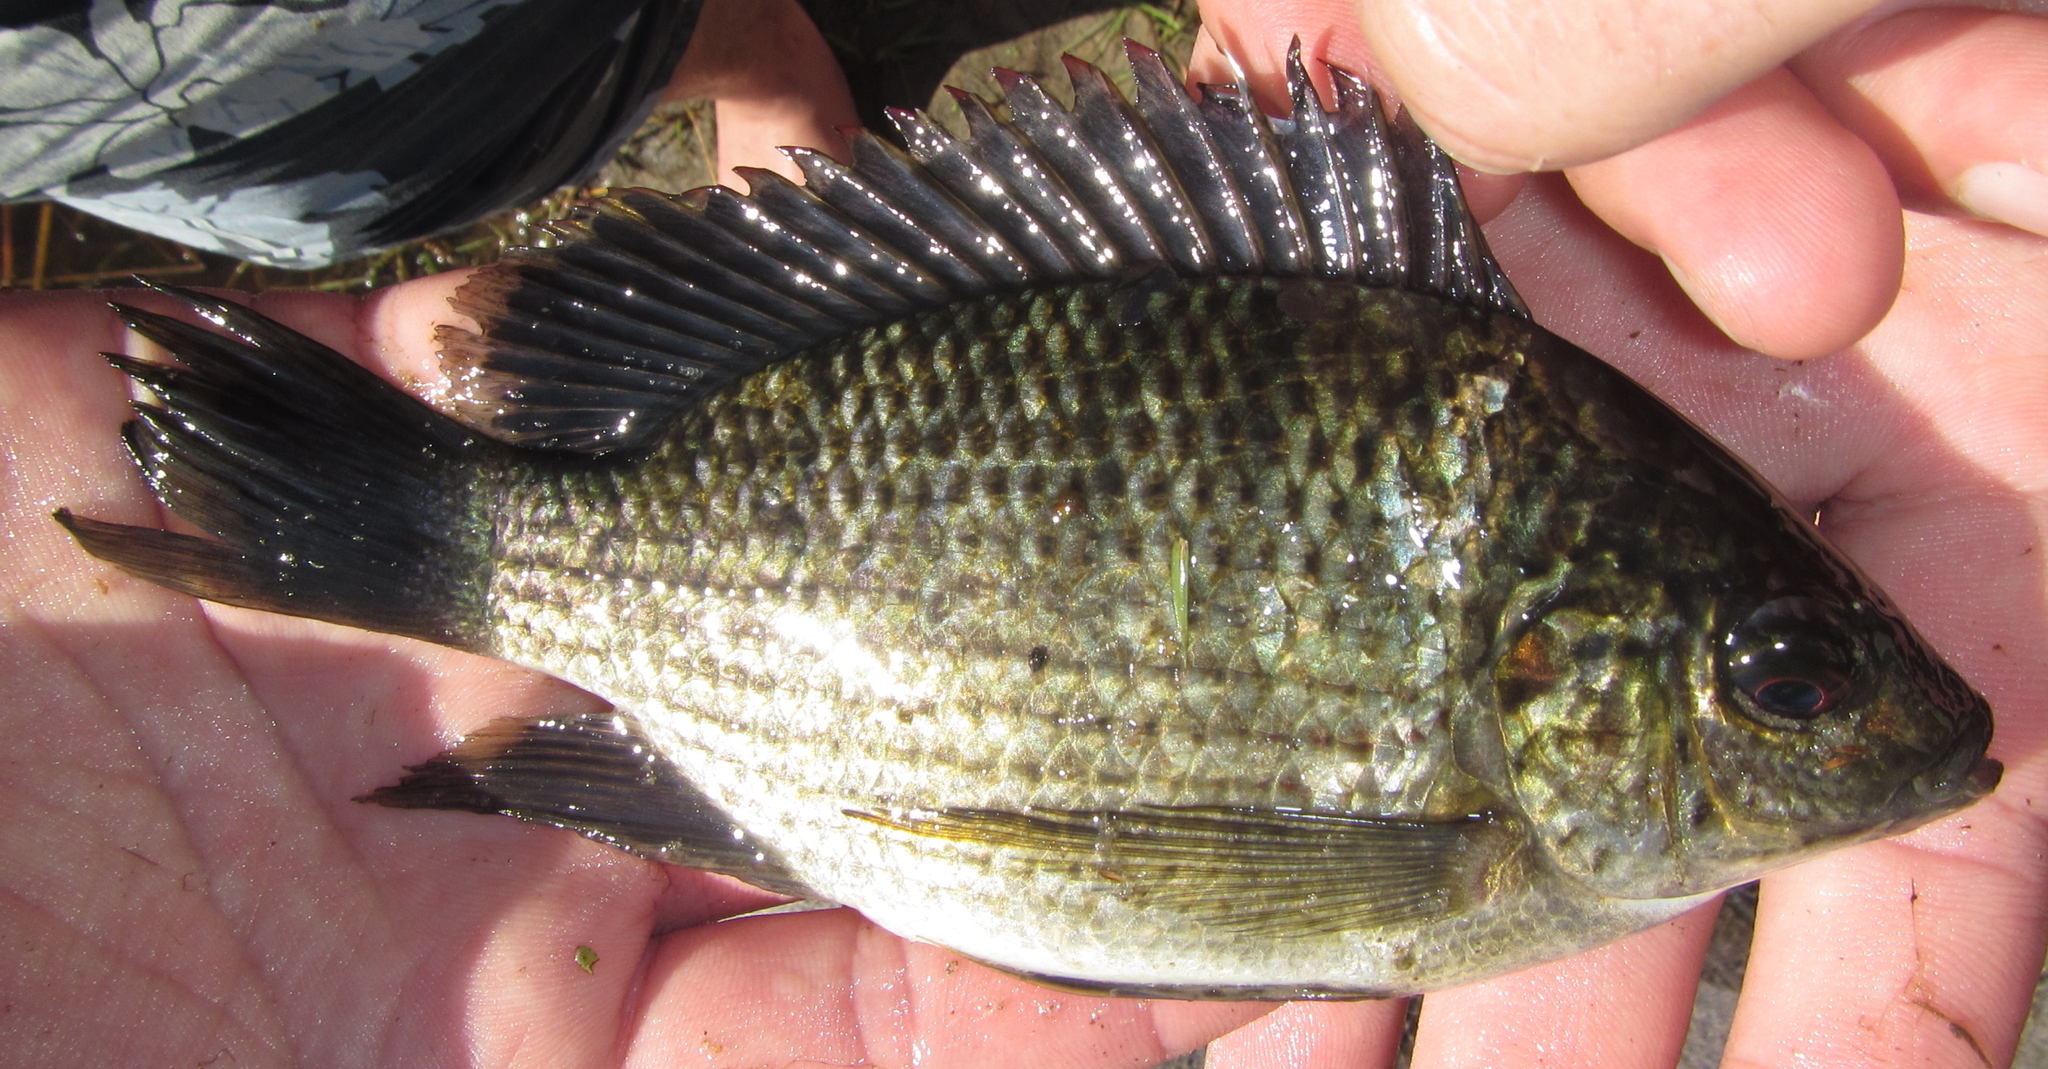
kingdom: Animalia
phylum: Chordata
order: Perciformes
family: Cichlidae
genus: Tilapia
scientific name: Tilapia sparrmanii
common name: Banded tilapia
